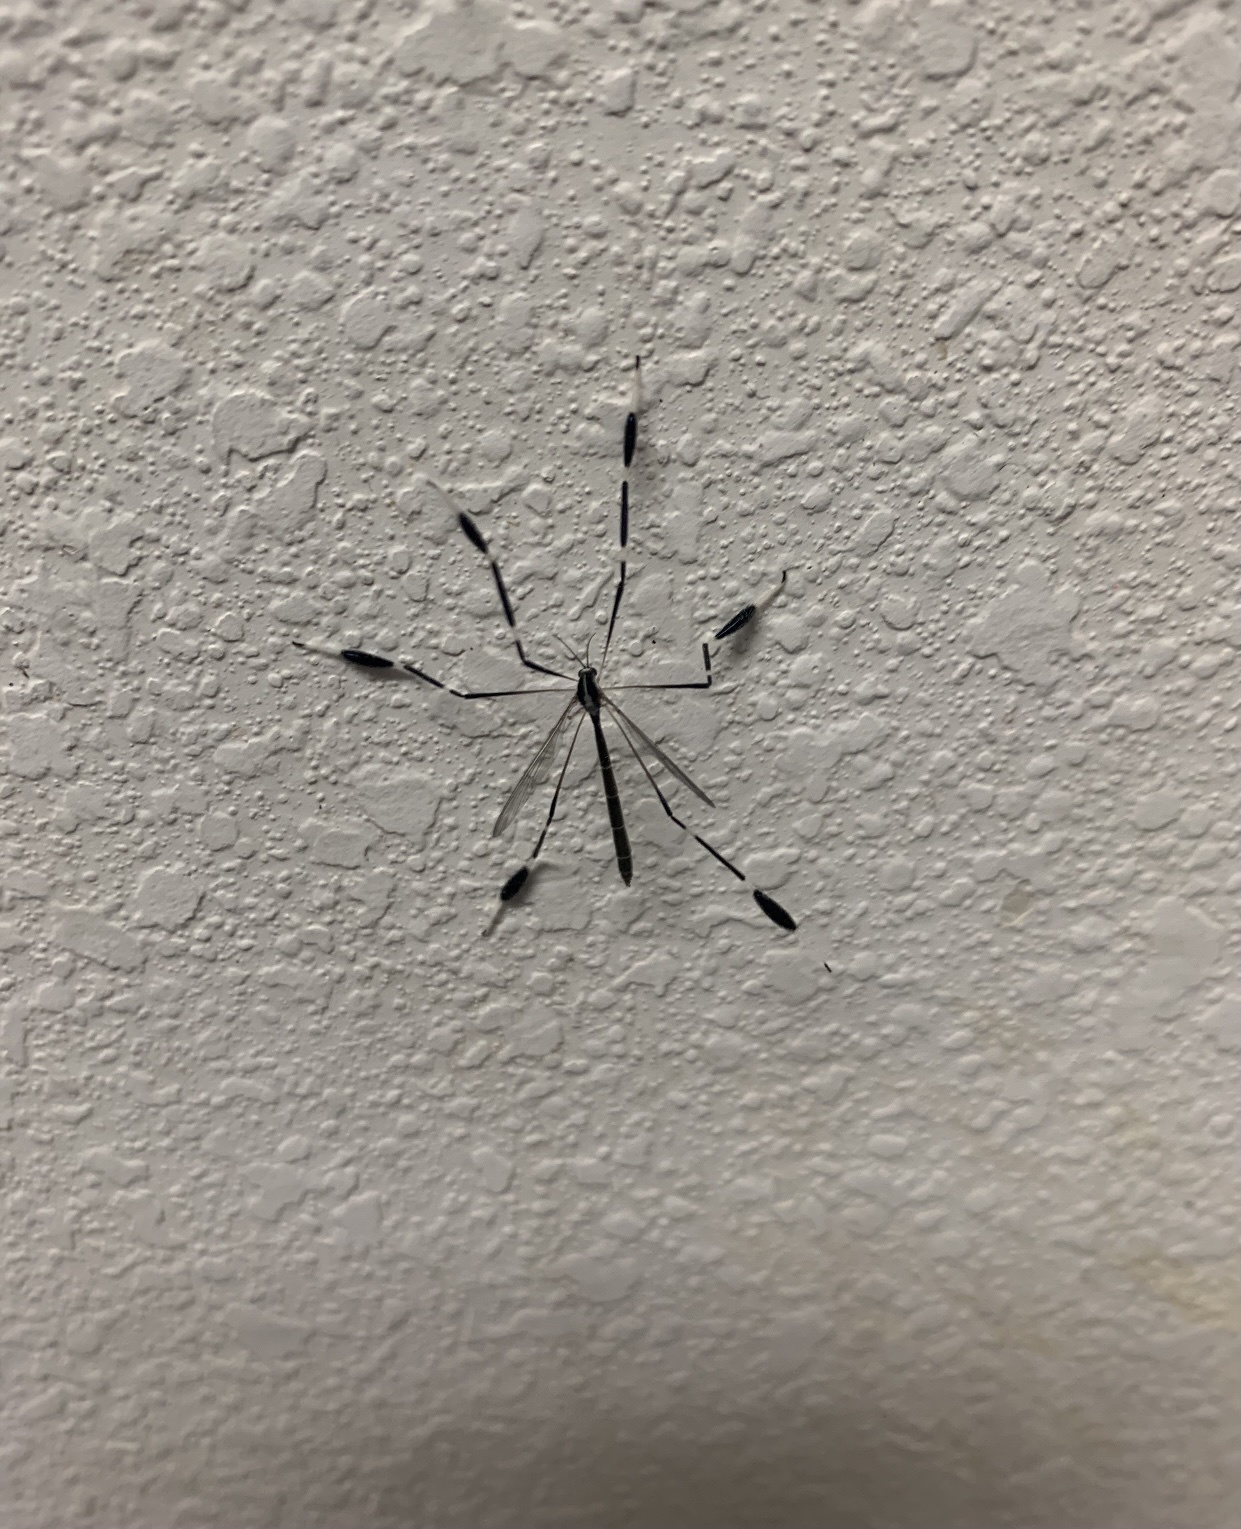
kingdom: Animalia
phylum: Arthropoda
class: Insecta
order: Diptera
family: Ptychopteridae
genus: Bittacomorpha
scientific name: Bittacomorpha clavipes
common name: Eastern phantom crane fly
